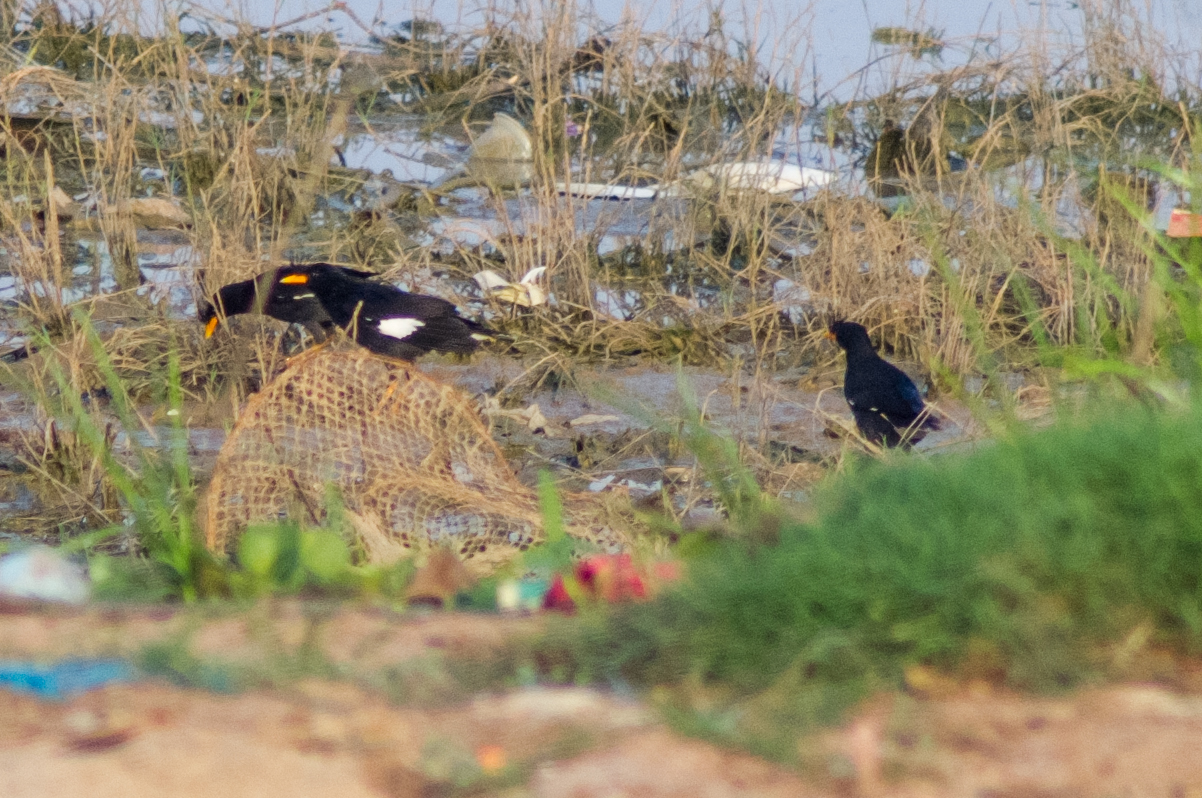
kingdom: Animalia
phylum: Chordata
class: Aves
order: Passeriformes
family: Sturnidae
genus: Acridotheres
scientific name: Acridotheres grandis
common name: Great myna
